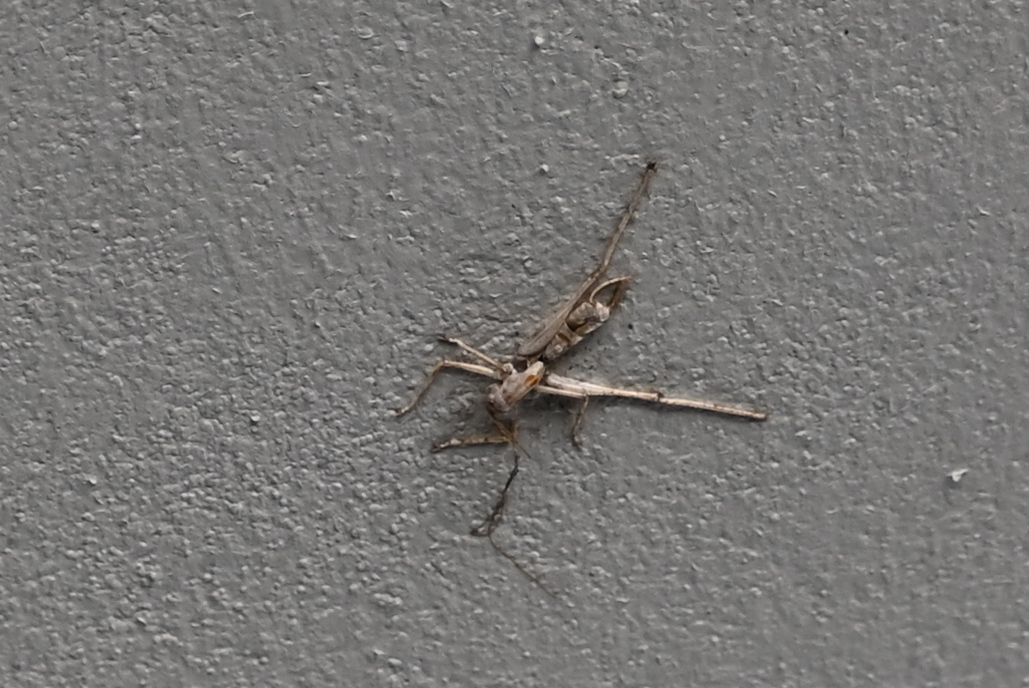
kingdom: Animalia
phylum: Arthropoda
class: Insecta
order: Orthoptera
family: Tettigoniidae
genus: Meconema
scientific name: Meconema meridionale
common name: Southern oak bush-cricket
